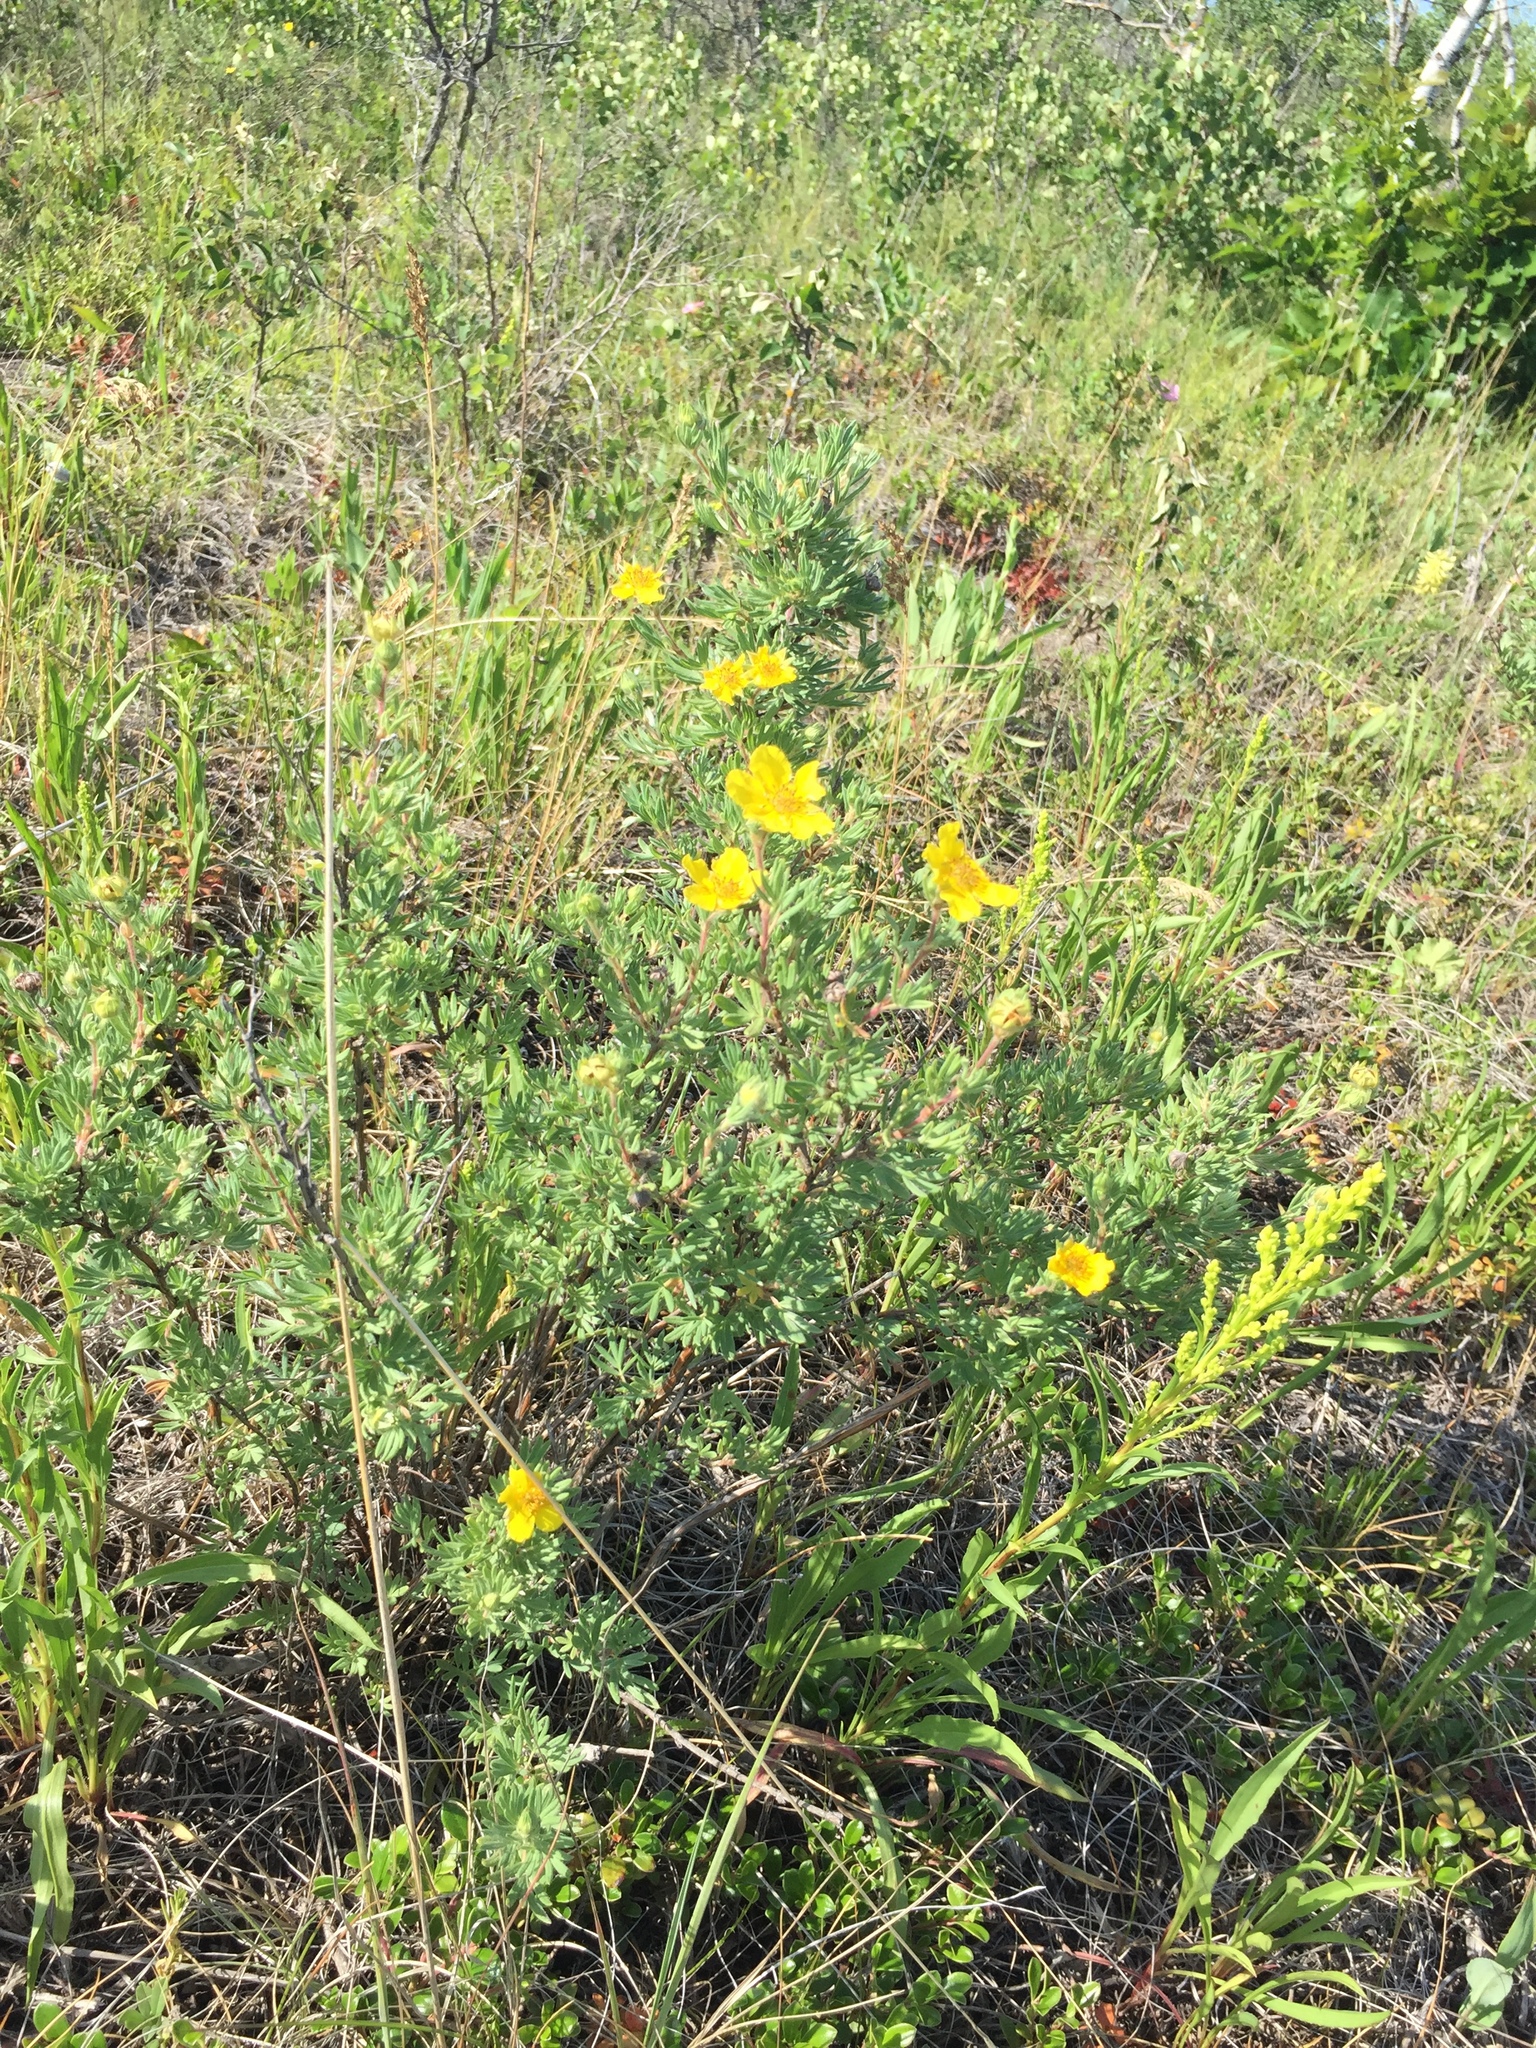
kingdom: Plantae
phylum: Tracheophyta
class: Magnoliopsida
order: Rosales
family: Rosaceae
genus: Dasiphora
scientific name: Dasiphora fruticosa
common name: Shrubby cinquefoil
